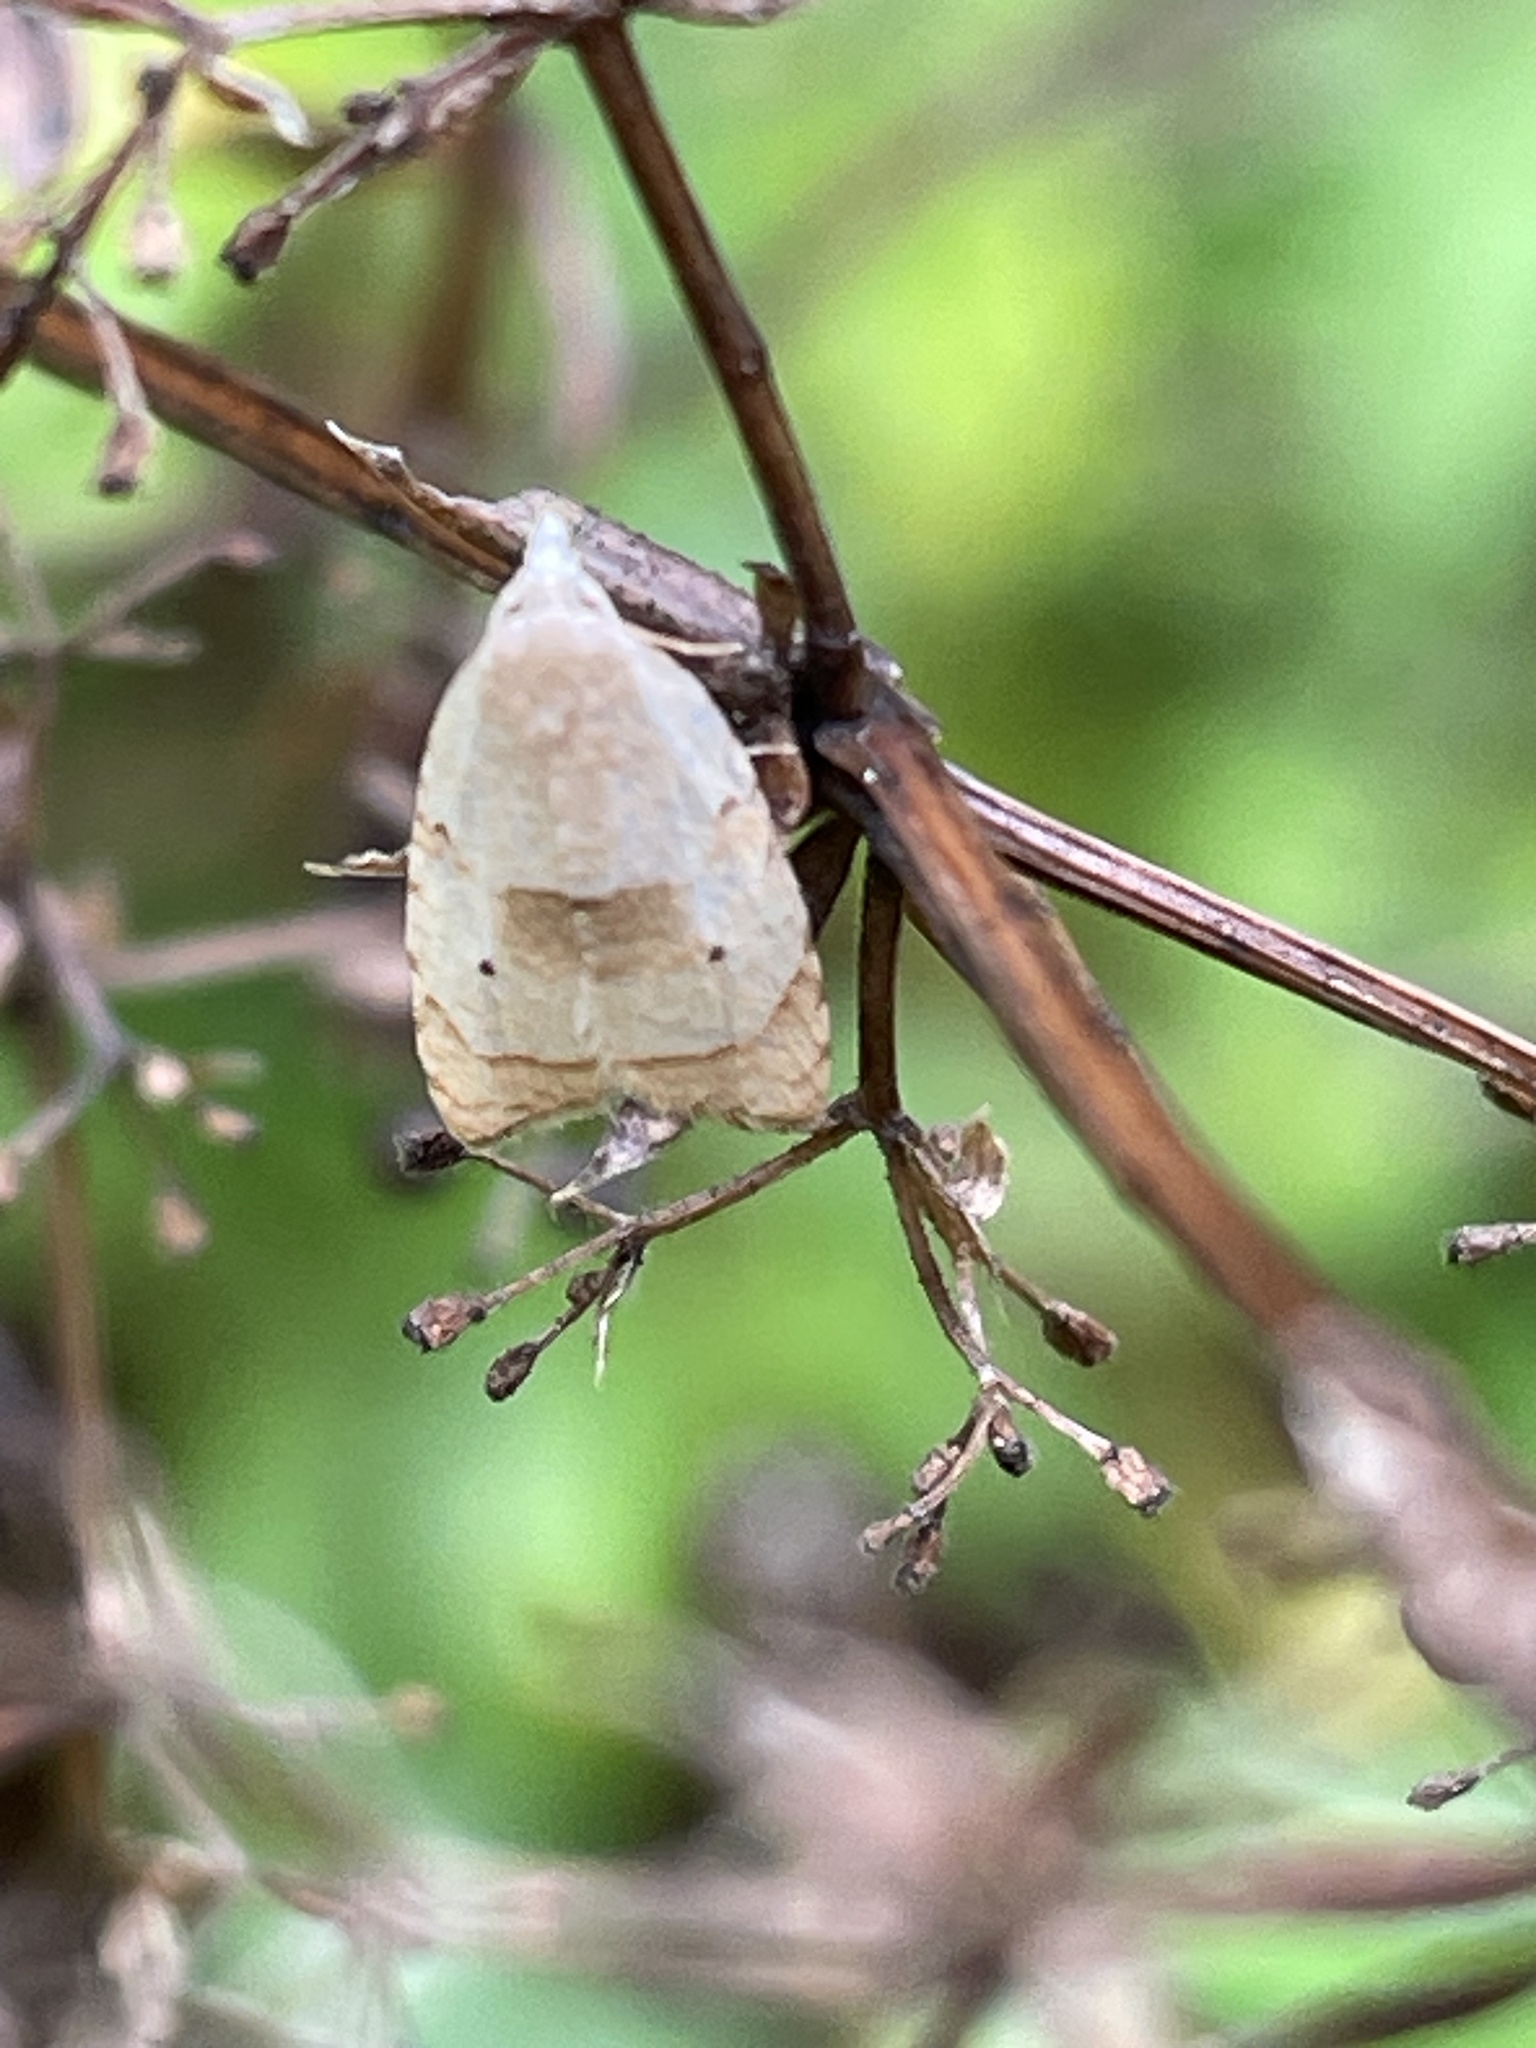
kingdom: Animalia
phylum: Arthropoda
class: Insecta
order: Lepidoptera
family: Tortricidae
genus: Coelostathma
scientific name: Coelostathma discopunctana
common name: Batman moth
